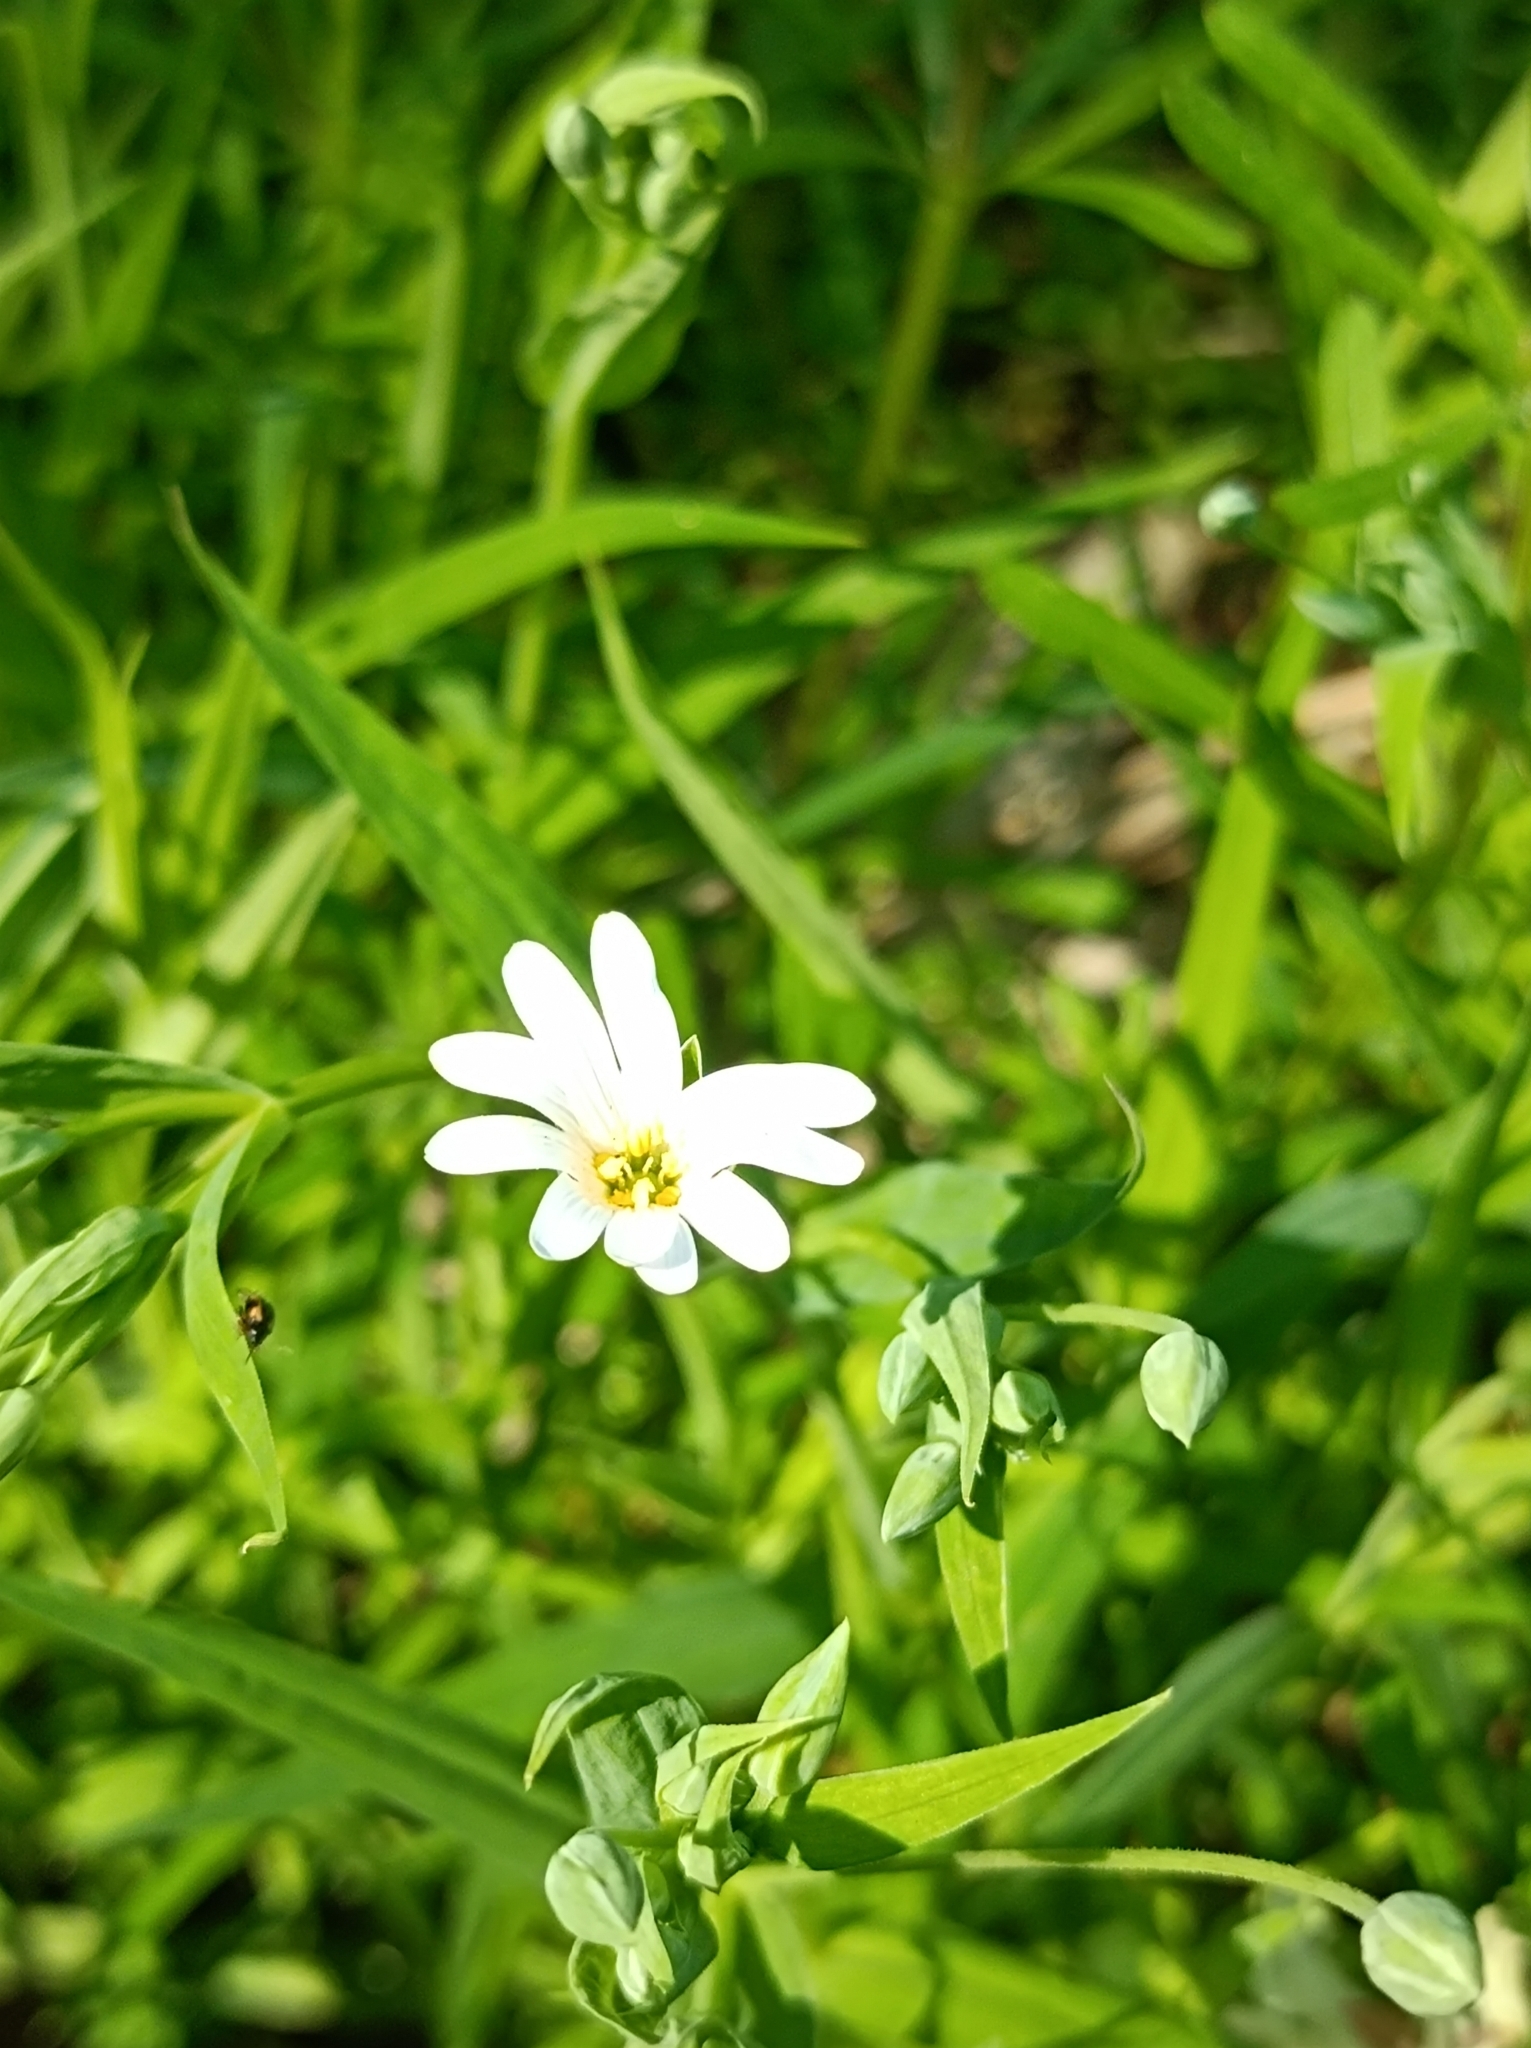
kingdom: Plantae
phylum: Tracheophyta
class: Magnoliopsida
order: Caryophyllales
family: Caryophyllaceae
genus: Rabelera
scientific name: Rabelera holostea
